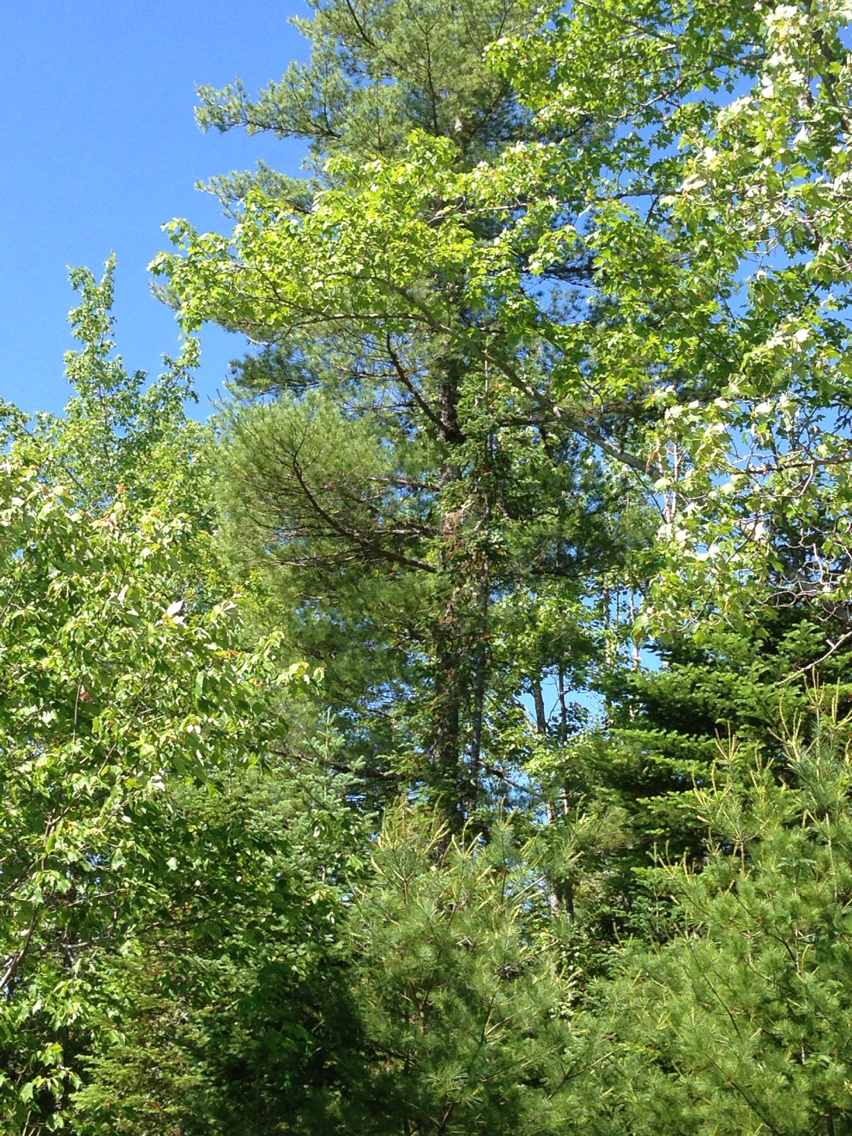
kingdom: Plantae
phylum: Tracheophyta
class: Pinopsida
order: Pinales
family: Pinaceae
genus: Pinus
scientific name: Pinus strobus
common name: Weymouth pine
